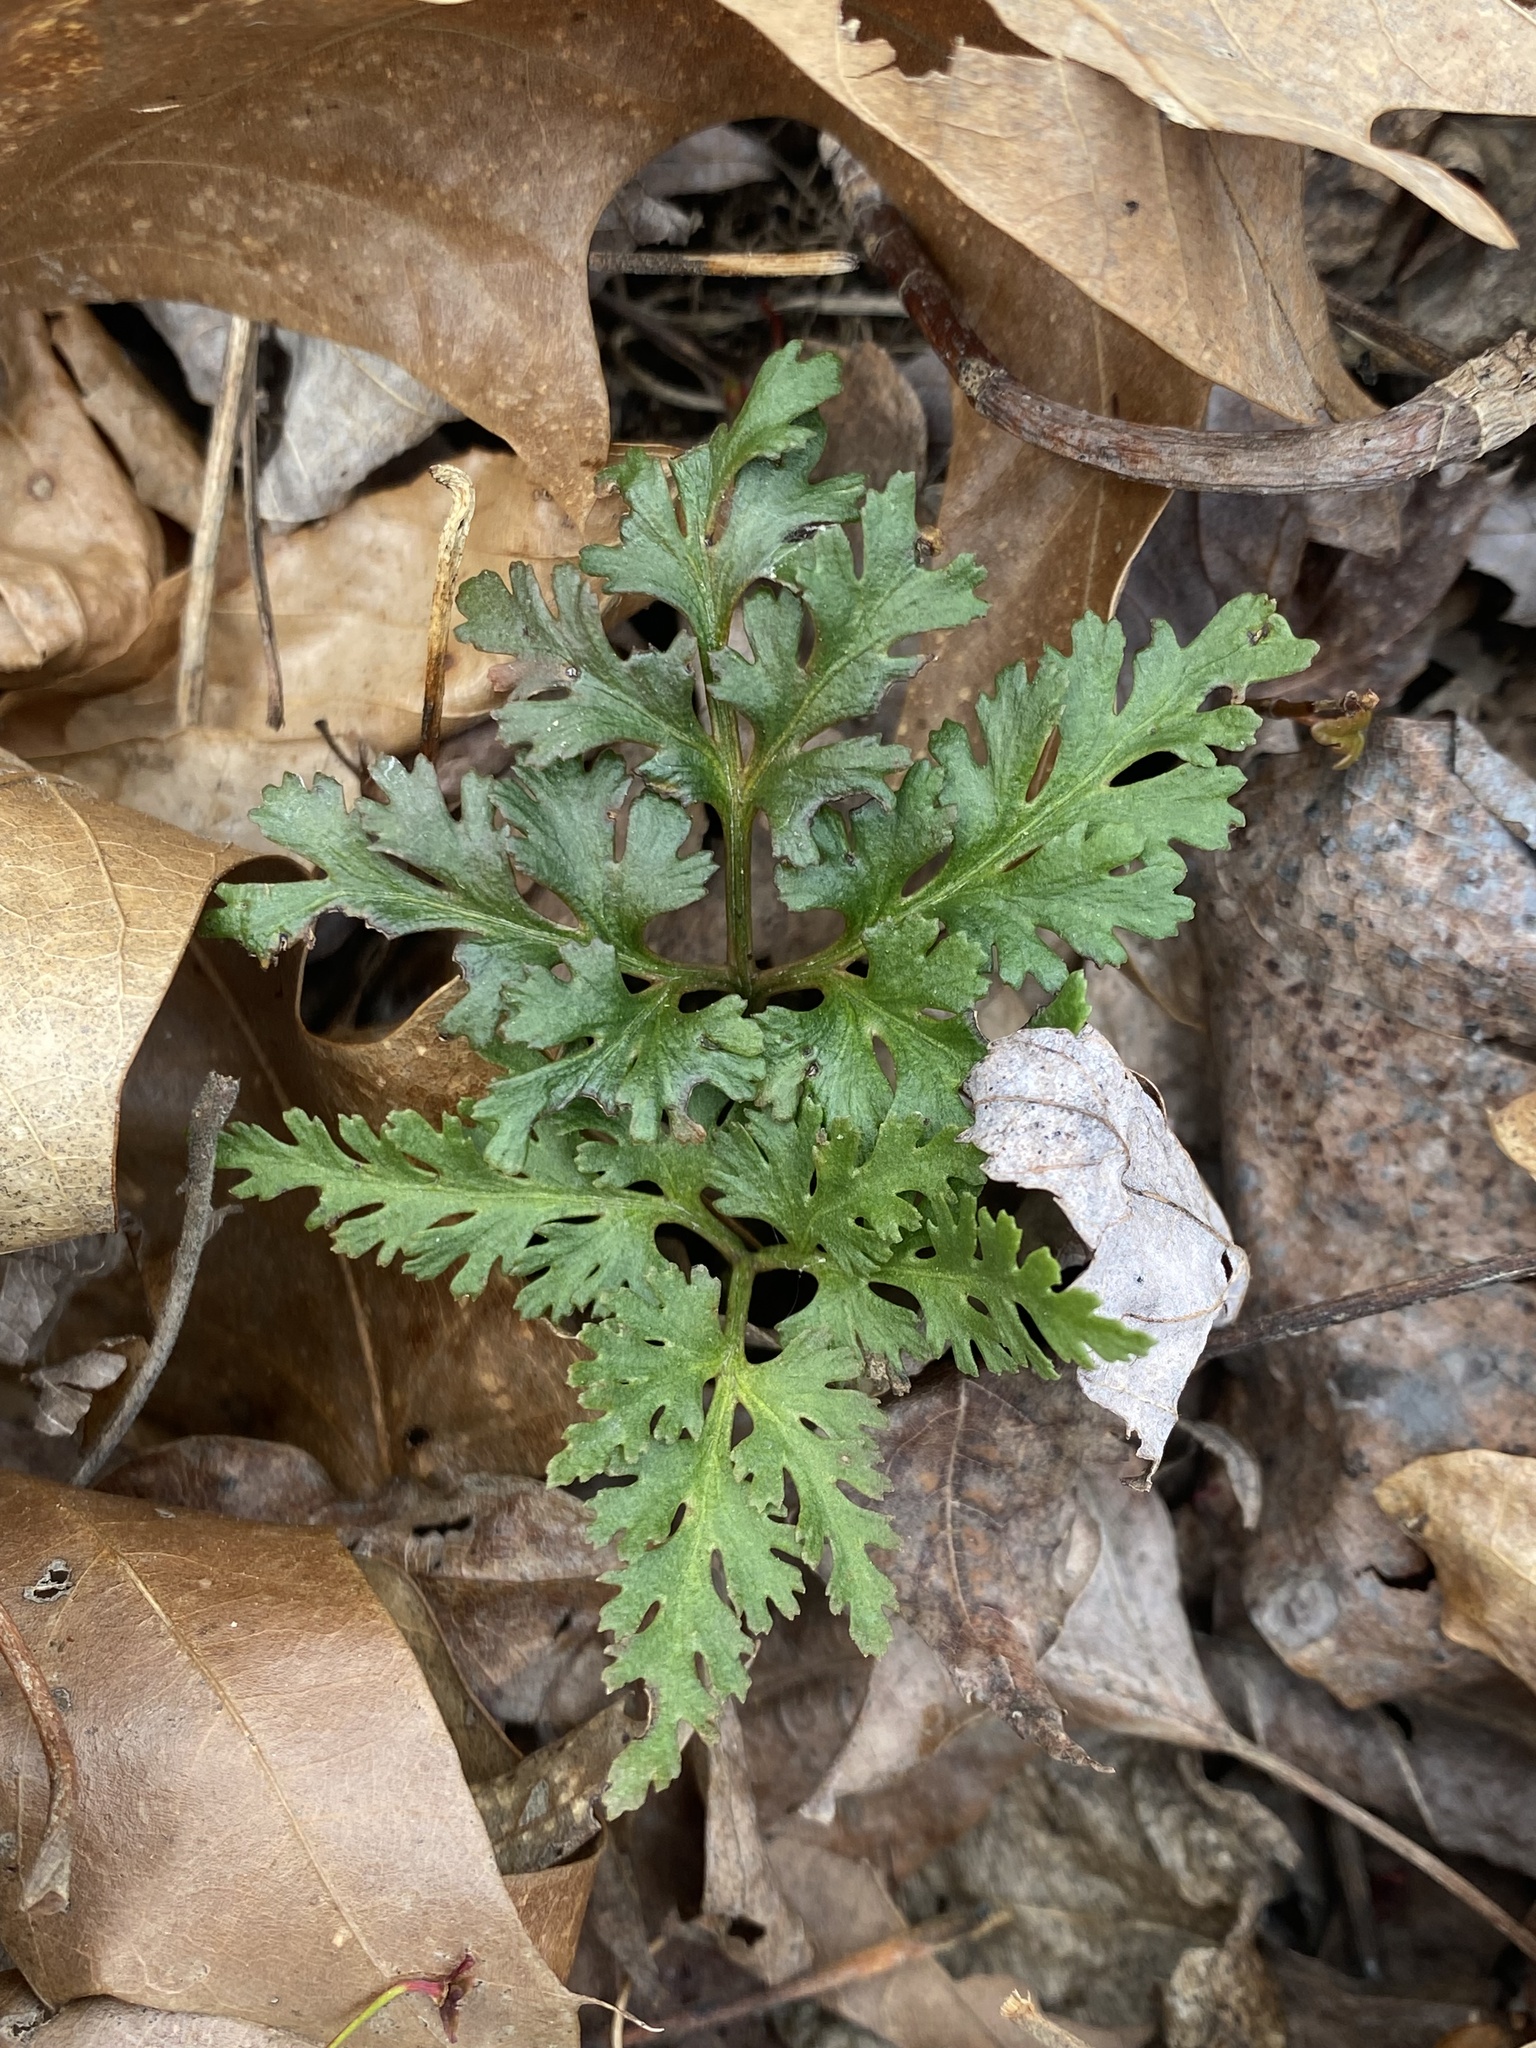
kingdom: Plantae
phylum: Tracheophyta
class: Polypodiopsida
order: Ophioglossales
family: Ophioglossaceae
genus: Sceptridium
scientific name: Sceptridium dissectum
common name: Cut-leaved grapefern
